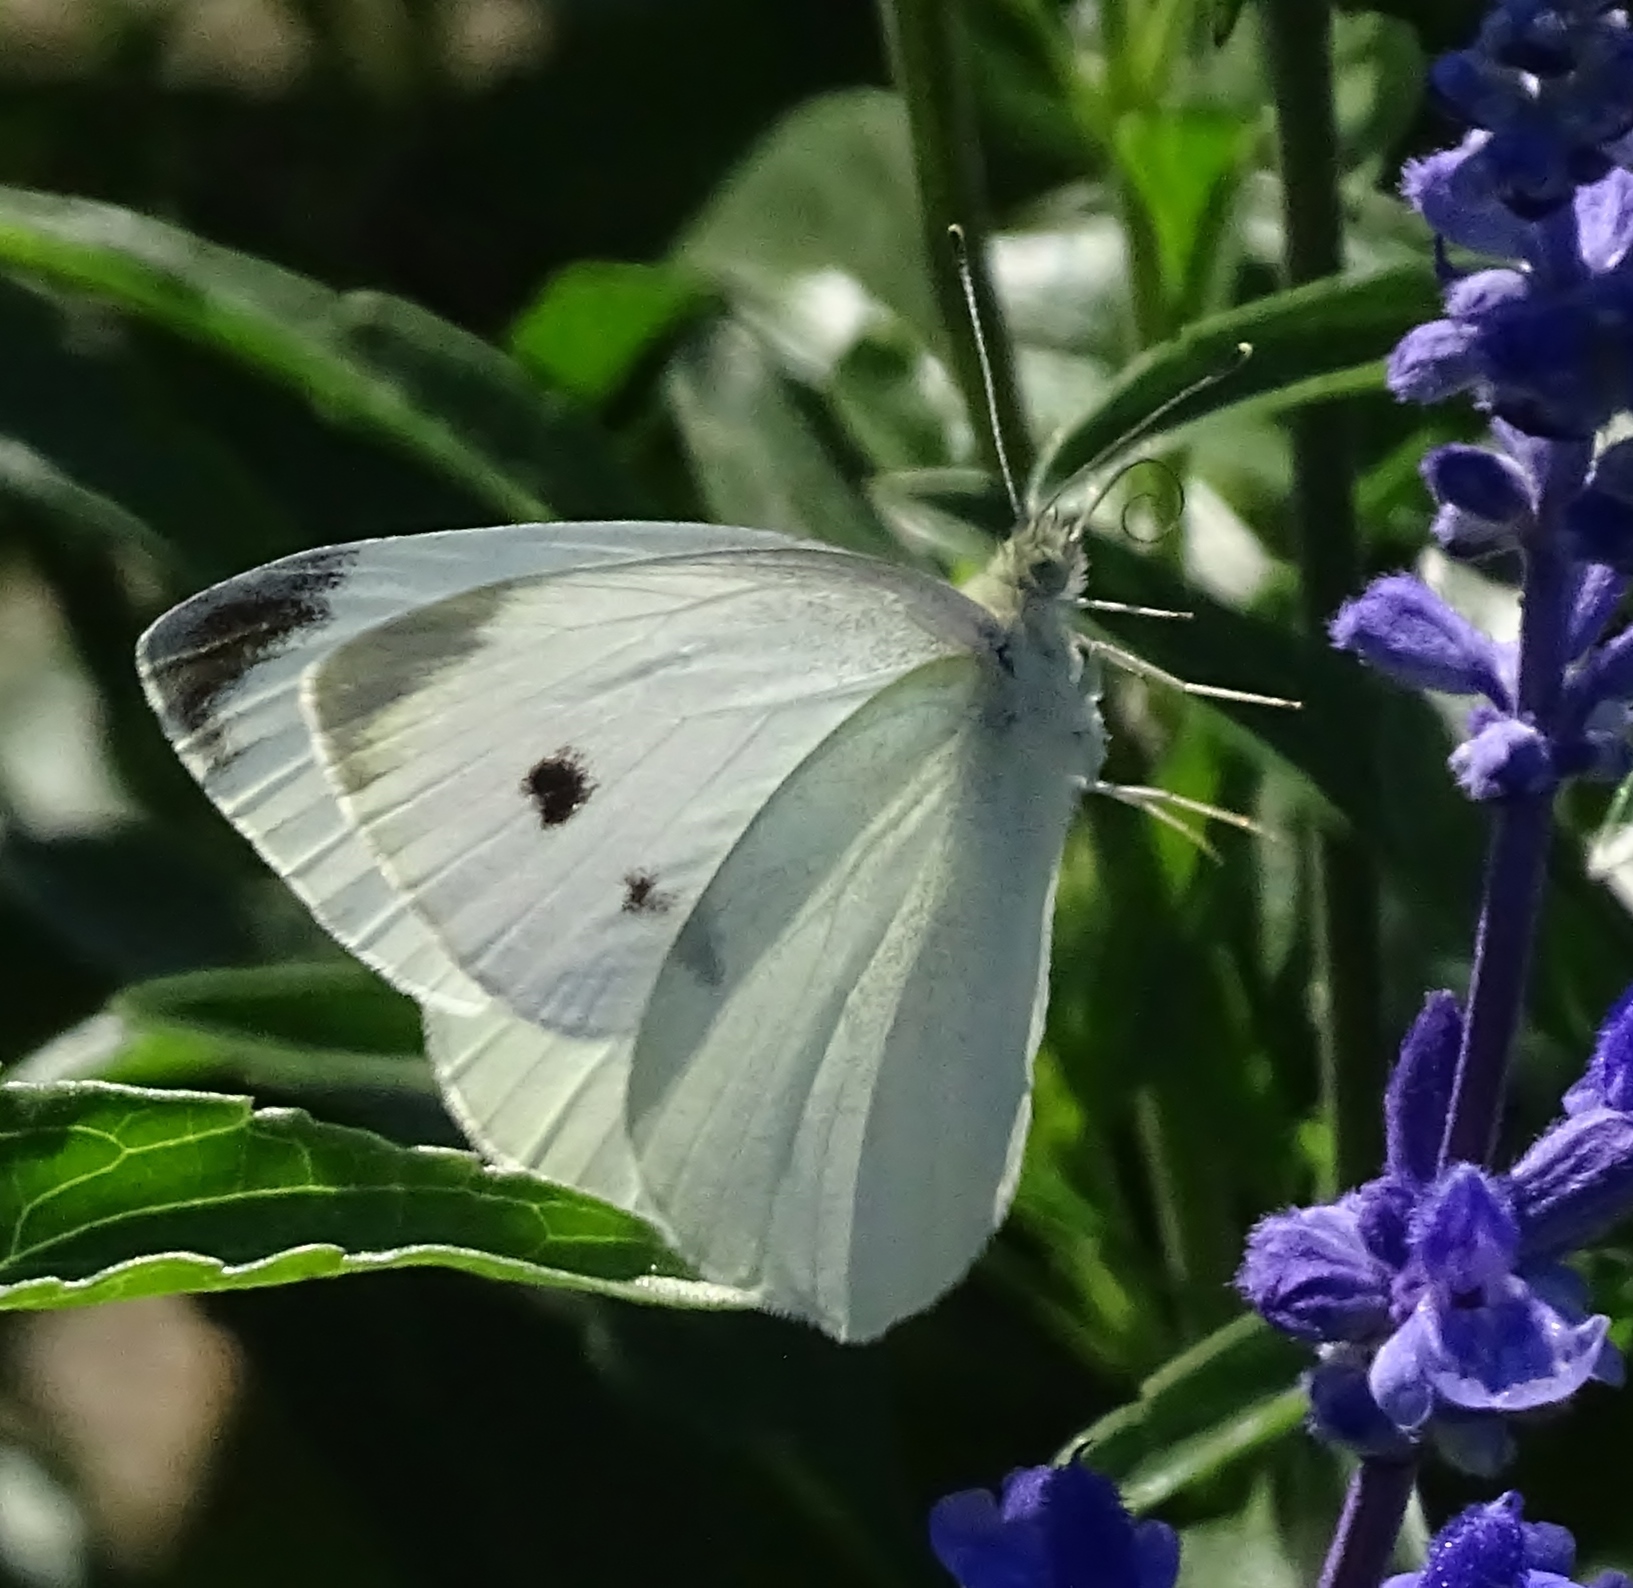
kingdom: Animalia
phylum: Arthropoda
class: Insecta
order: Lepidoptera
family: Pieridae
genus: Pieris
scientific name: Pieris rapae
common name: Small white
